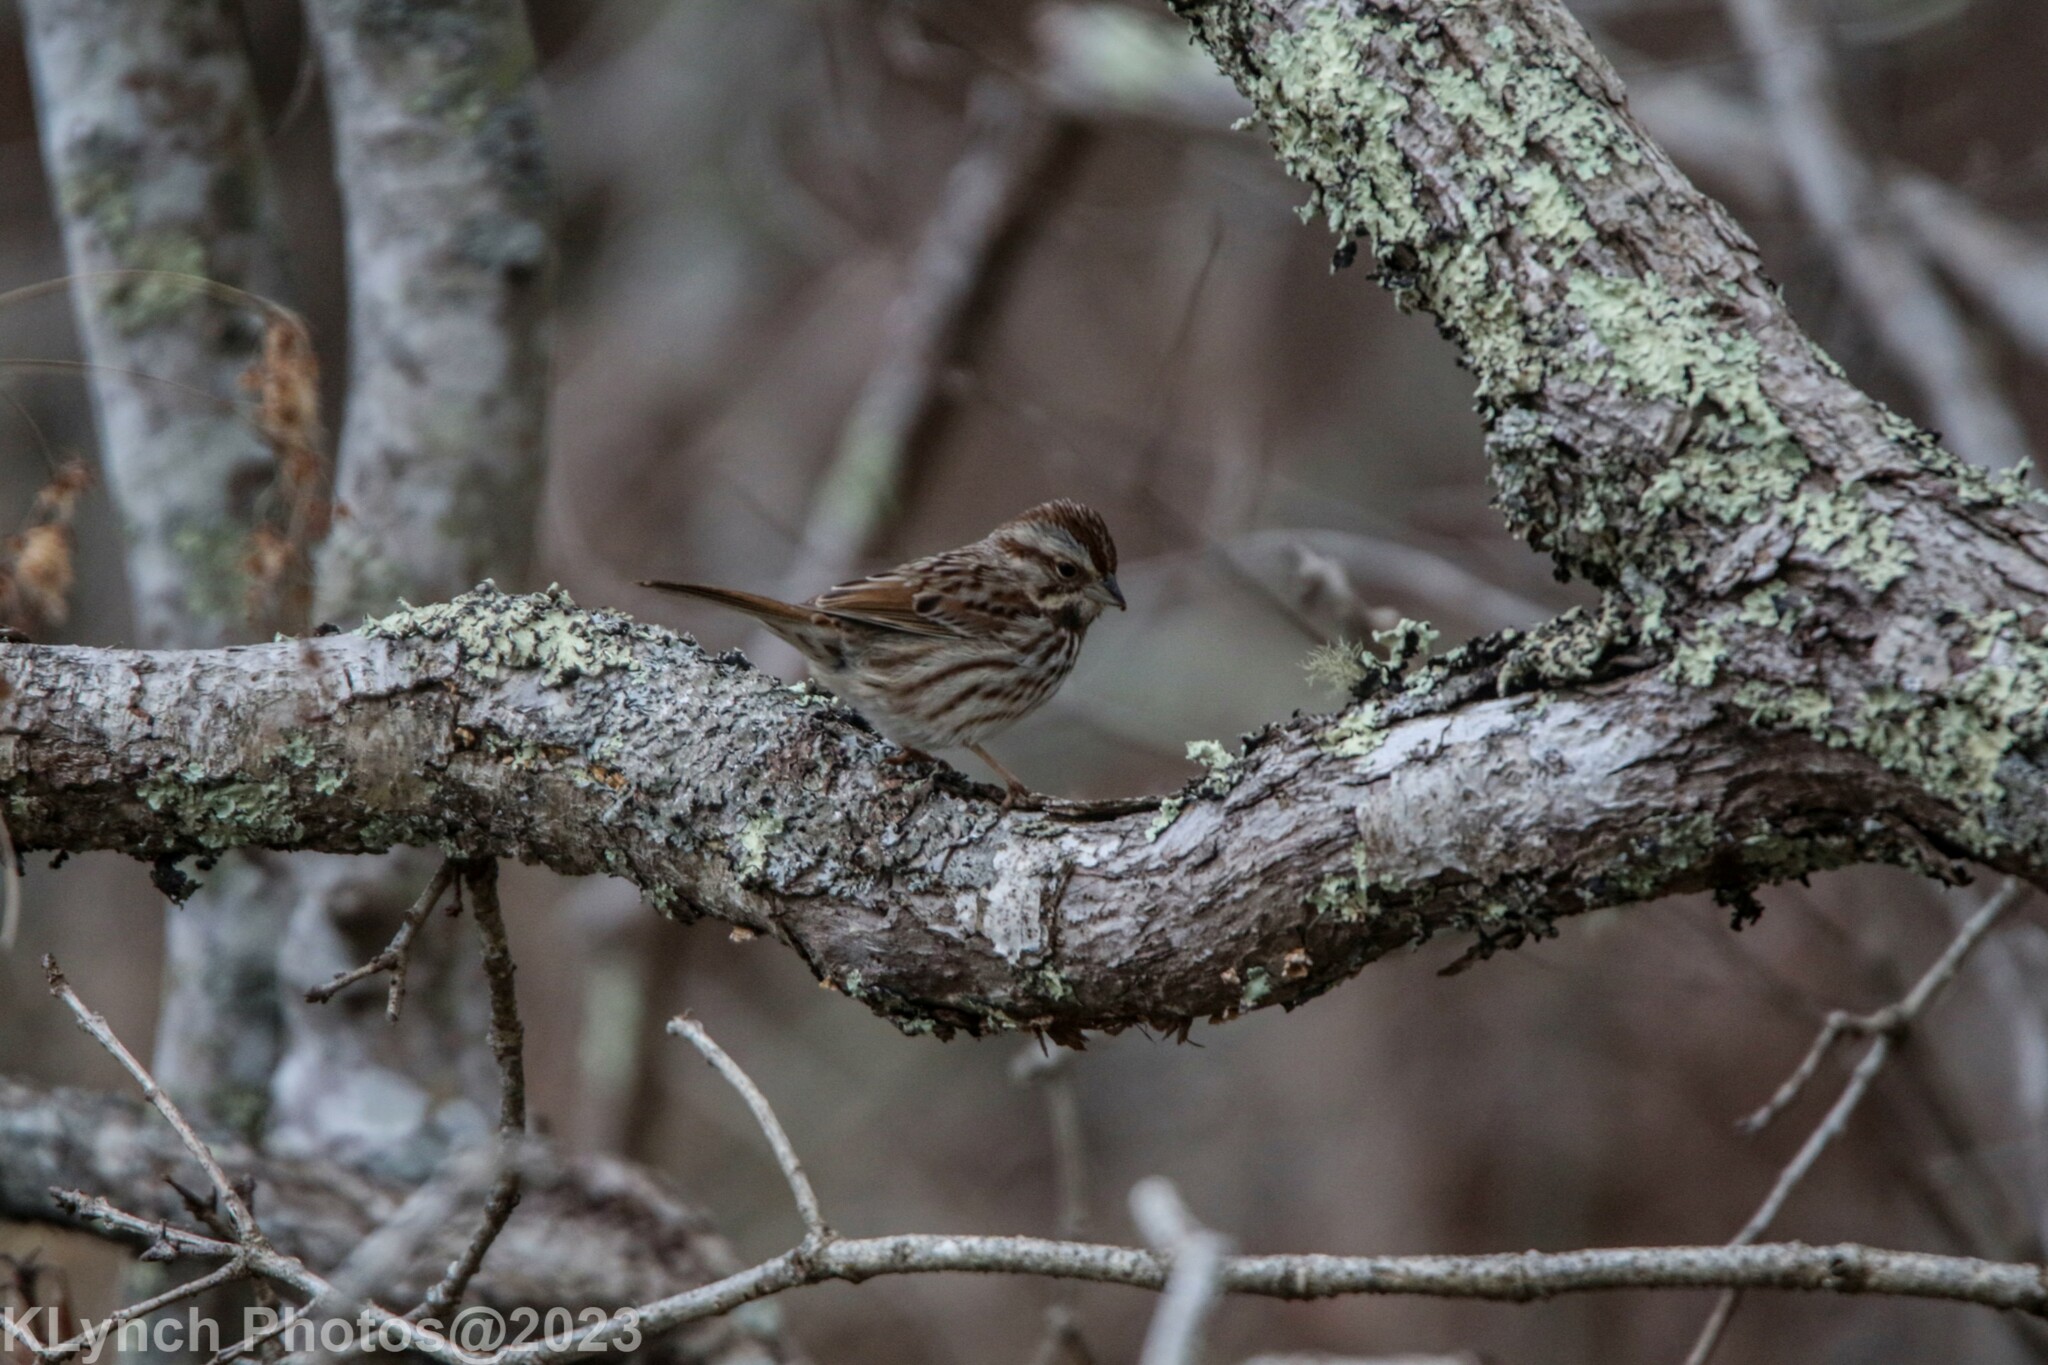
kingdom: Animalia
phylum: Chordata
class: Aves
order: Passeriformes
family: Passerellidae
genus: Melospiza
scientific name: Melospiza melodia
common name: Song sparrow
